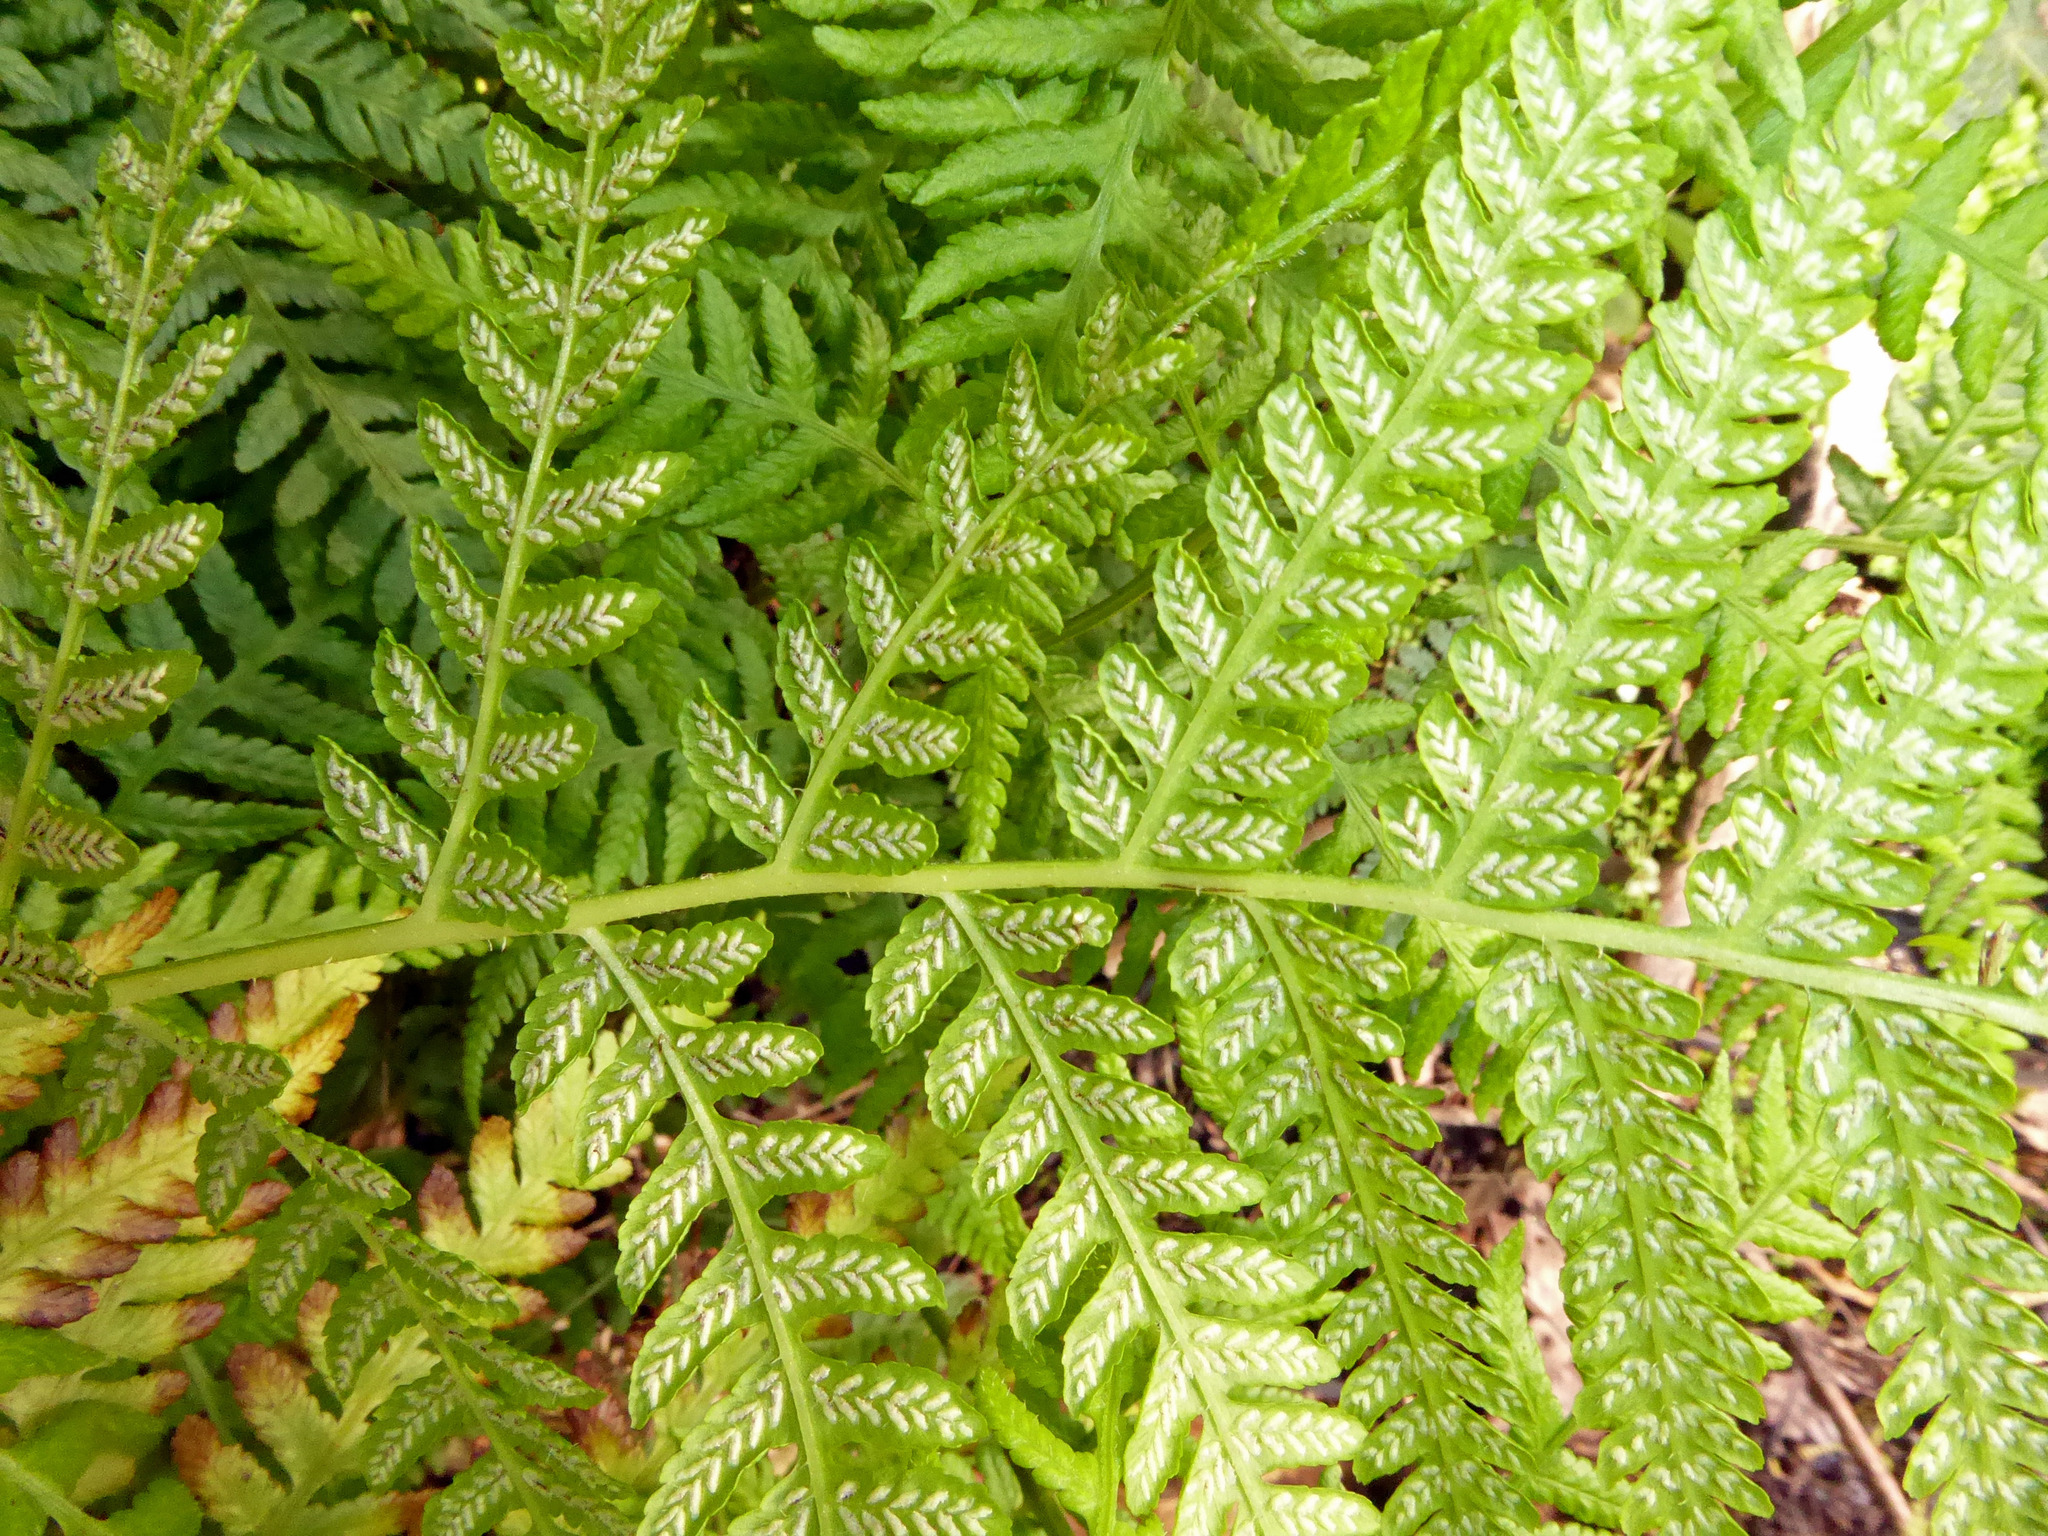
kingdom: Plantae
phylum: Tracheophyta
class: Polypodiopsida
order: Polypodiales
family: Athyriaceae
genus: Diplazium
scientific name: Diplazium congruum
